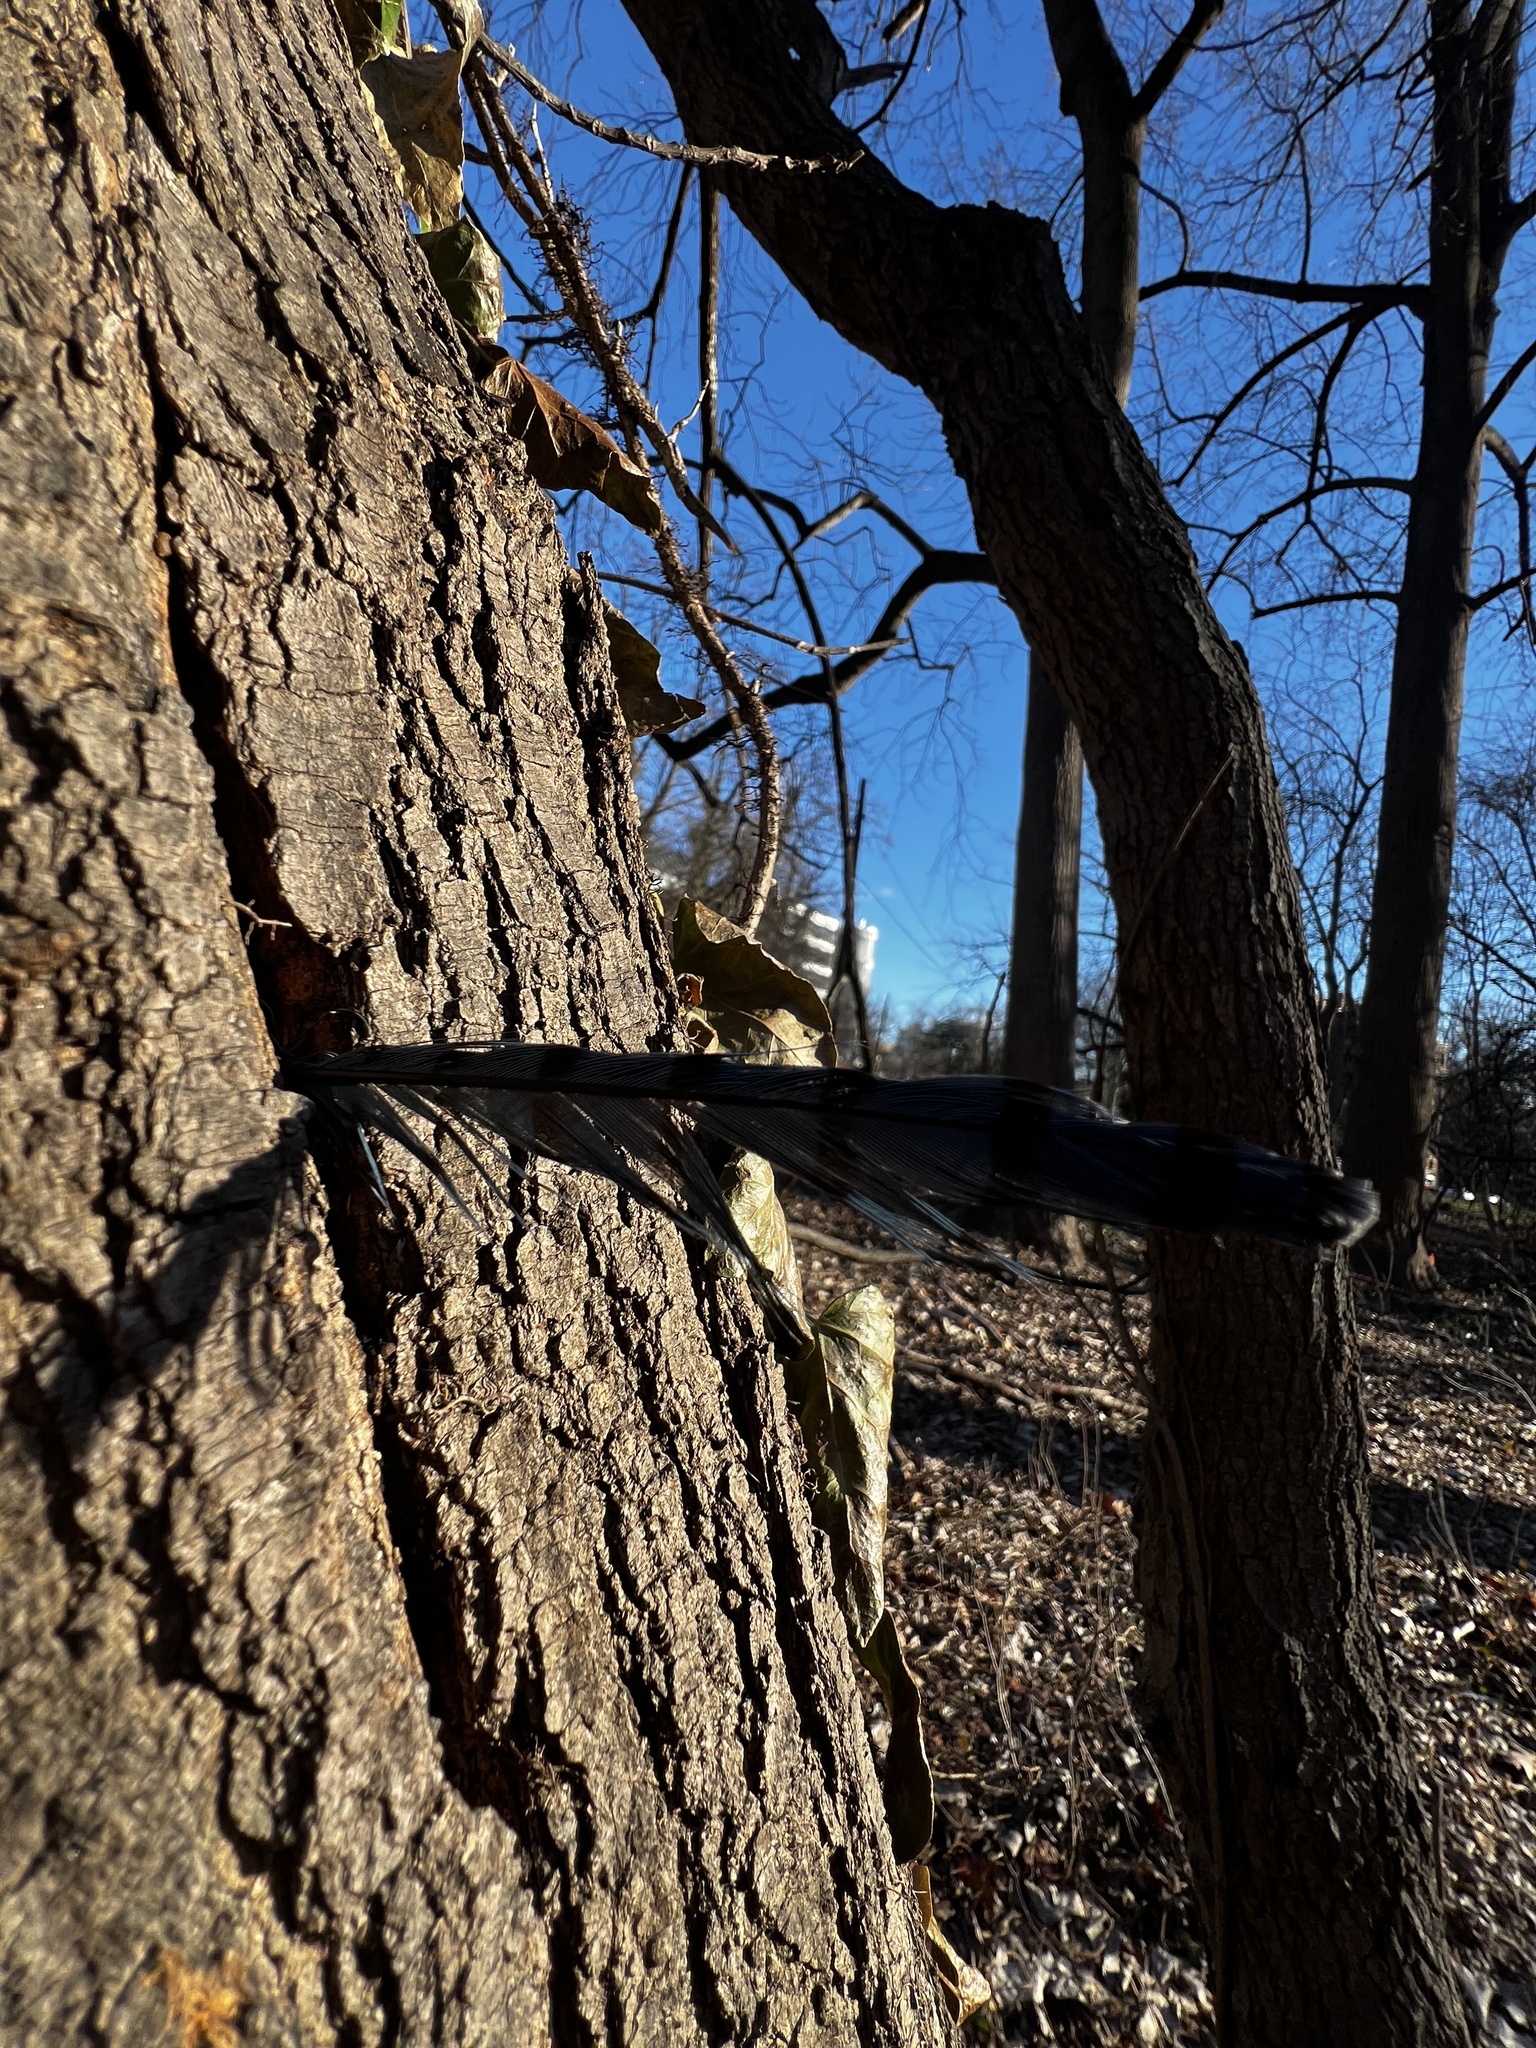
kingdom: Animalia
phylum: Chordata
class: Aves
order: Passeriformes
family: Corvidae
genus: Cyanocitta
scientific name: Cyanocitta cristata
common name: Blue jay
